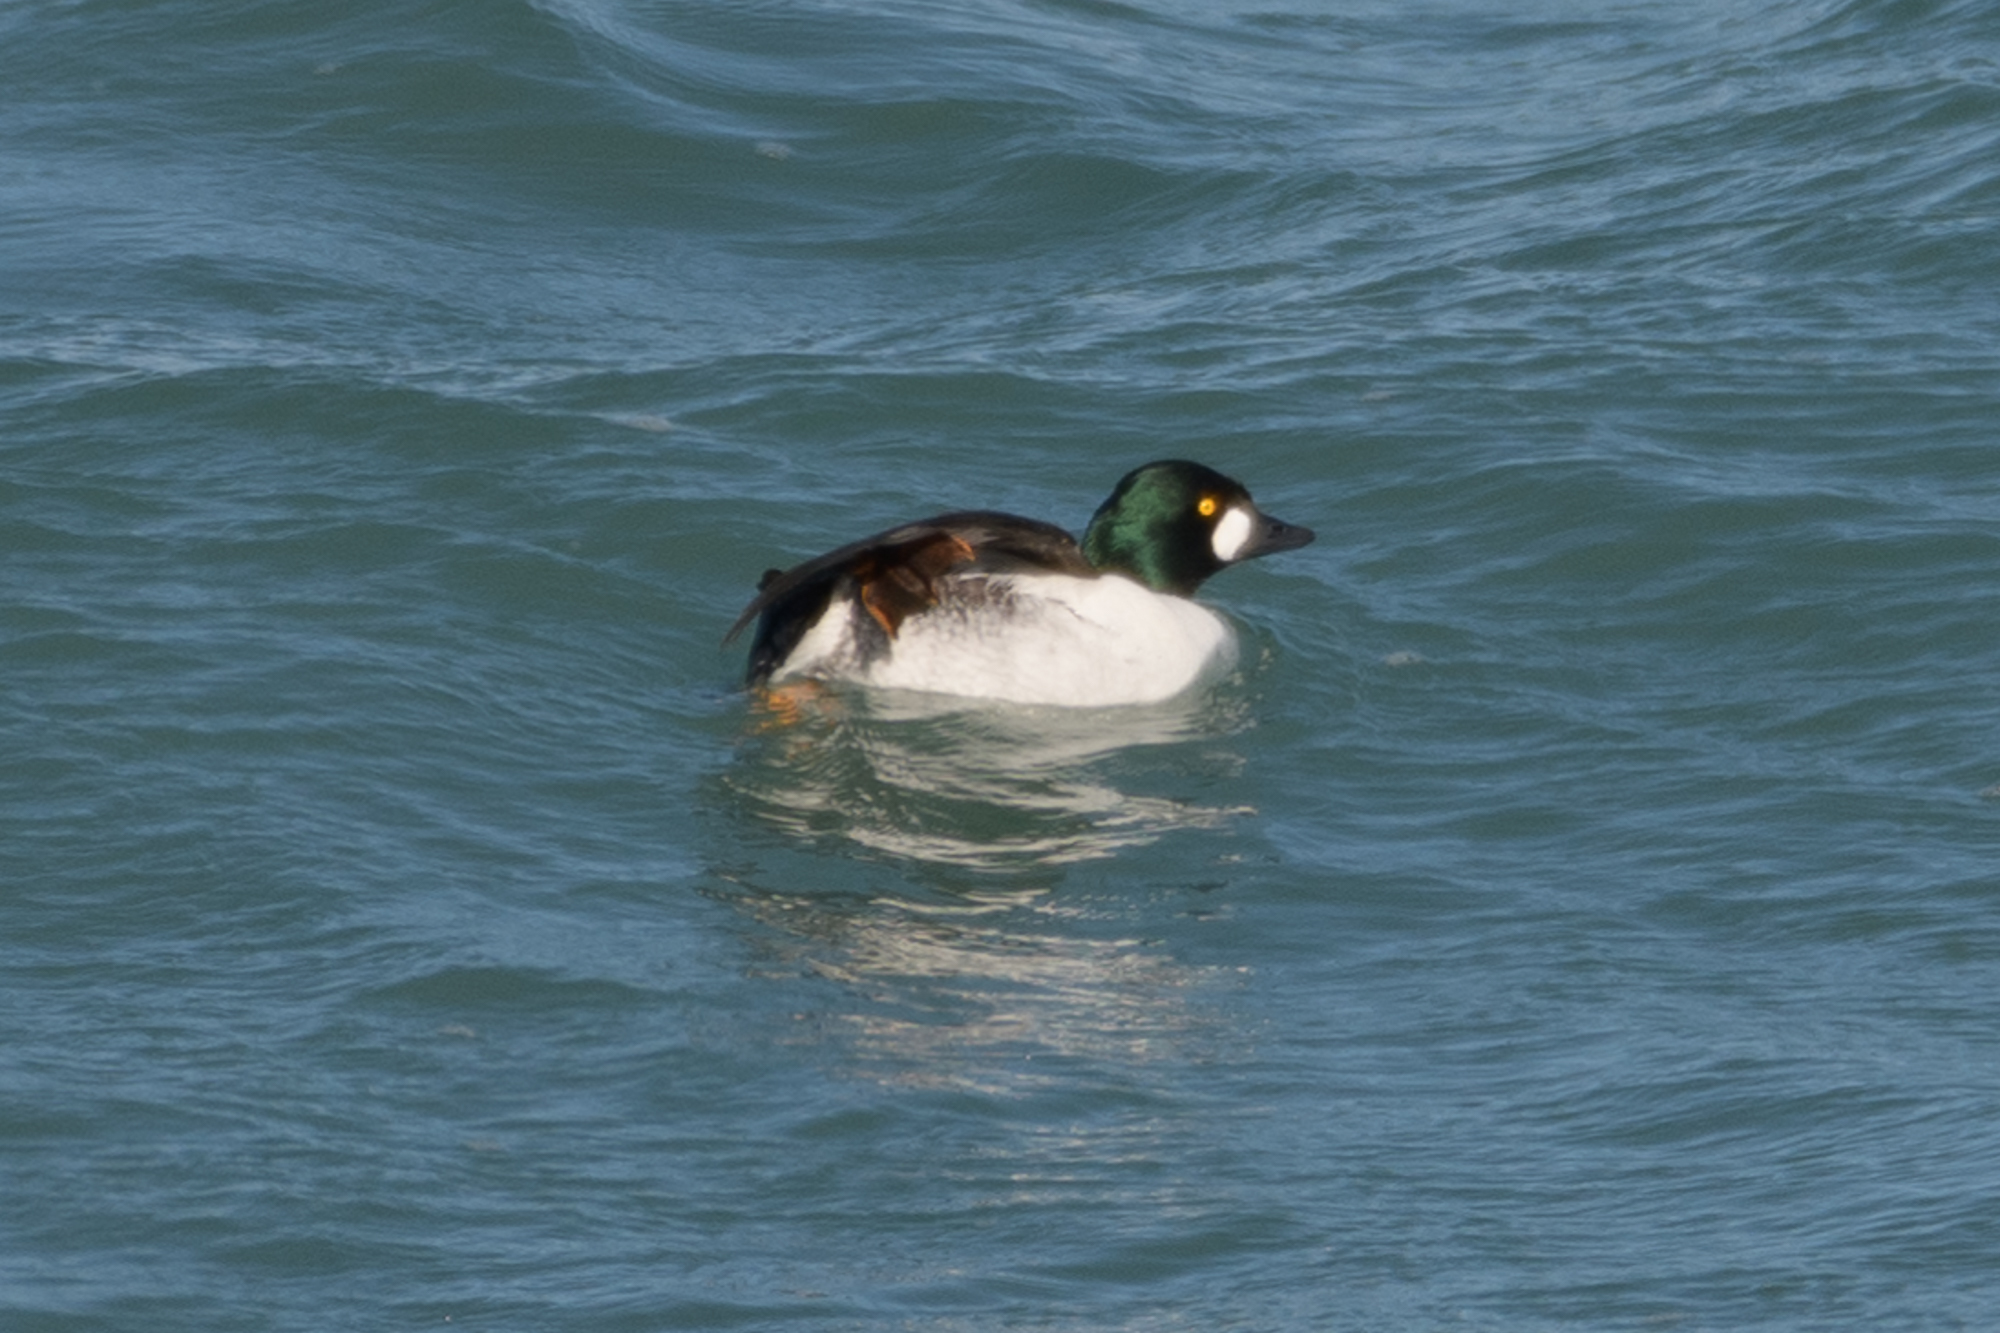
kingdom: Animalia
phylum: Chordata
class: Aves
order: Anseriformes
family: Anatidae
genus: Bucephala
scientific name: Bucephala clangula
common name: Common goldeneye
